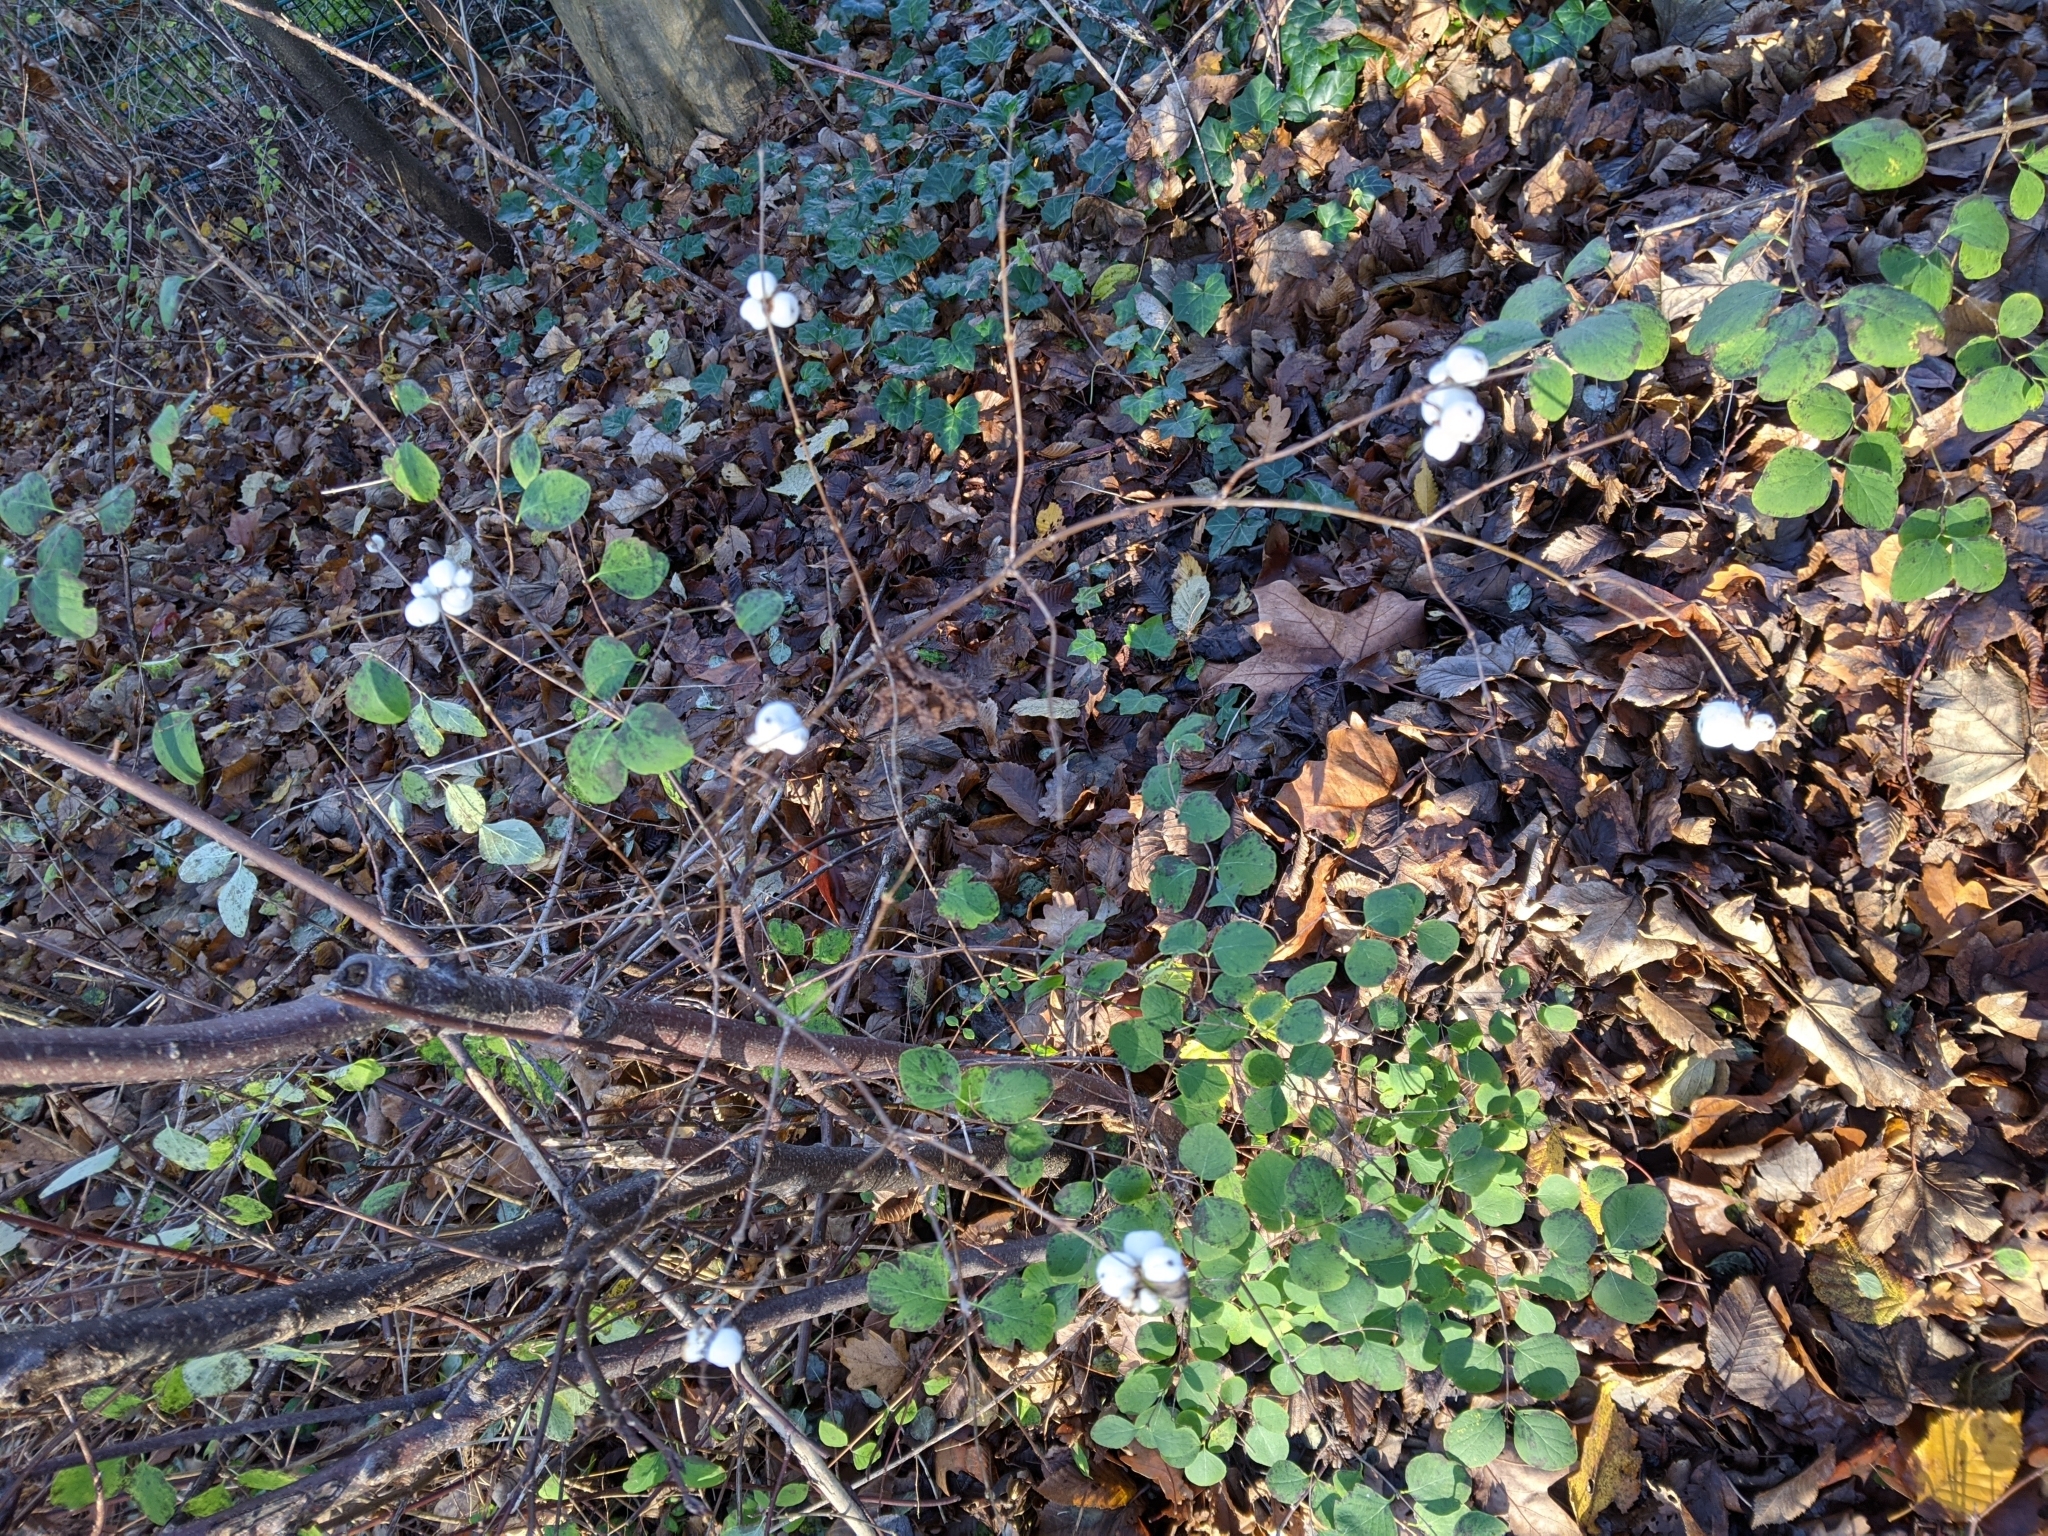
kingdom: Plantae
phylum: Tracheophyta
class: Magnoliopsida
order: Dipsacales
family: Caprifoliaceae
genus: Symphoricarpos
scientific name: Symphoricarpos albus
